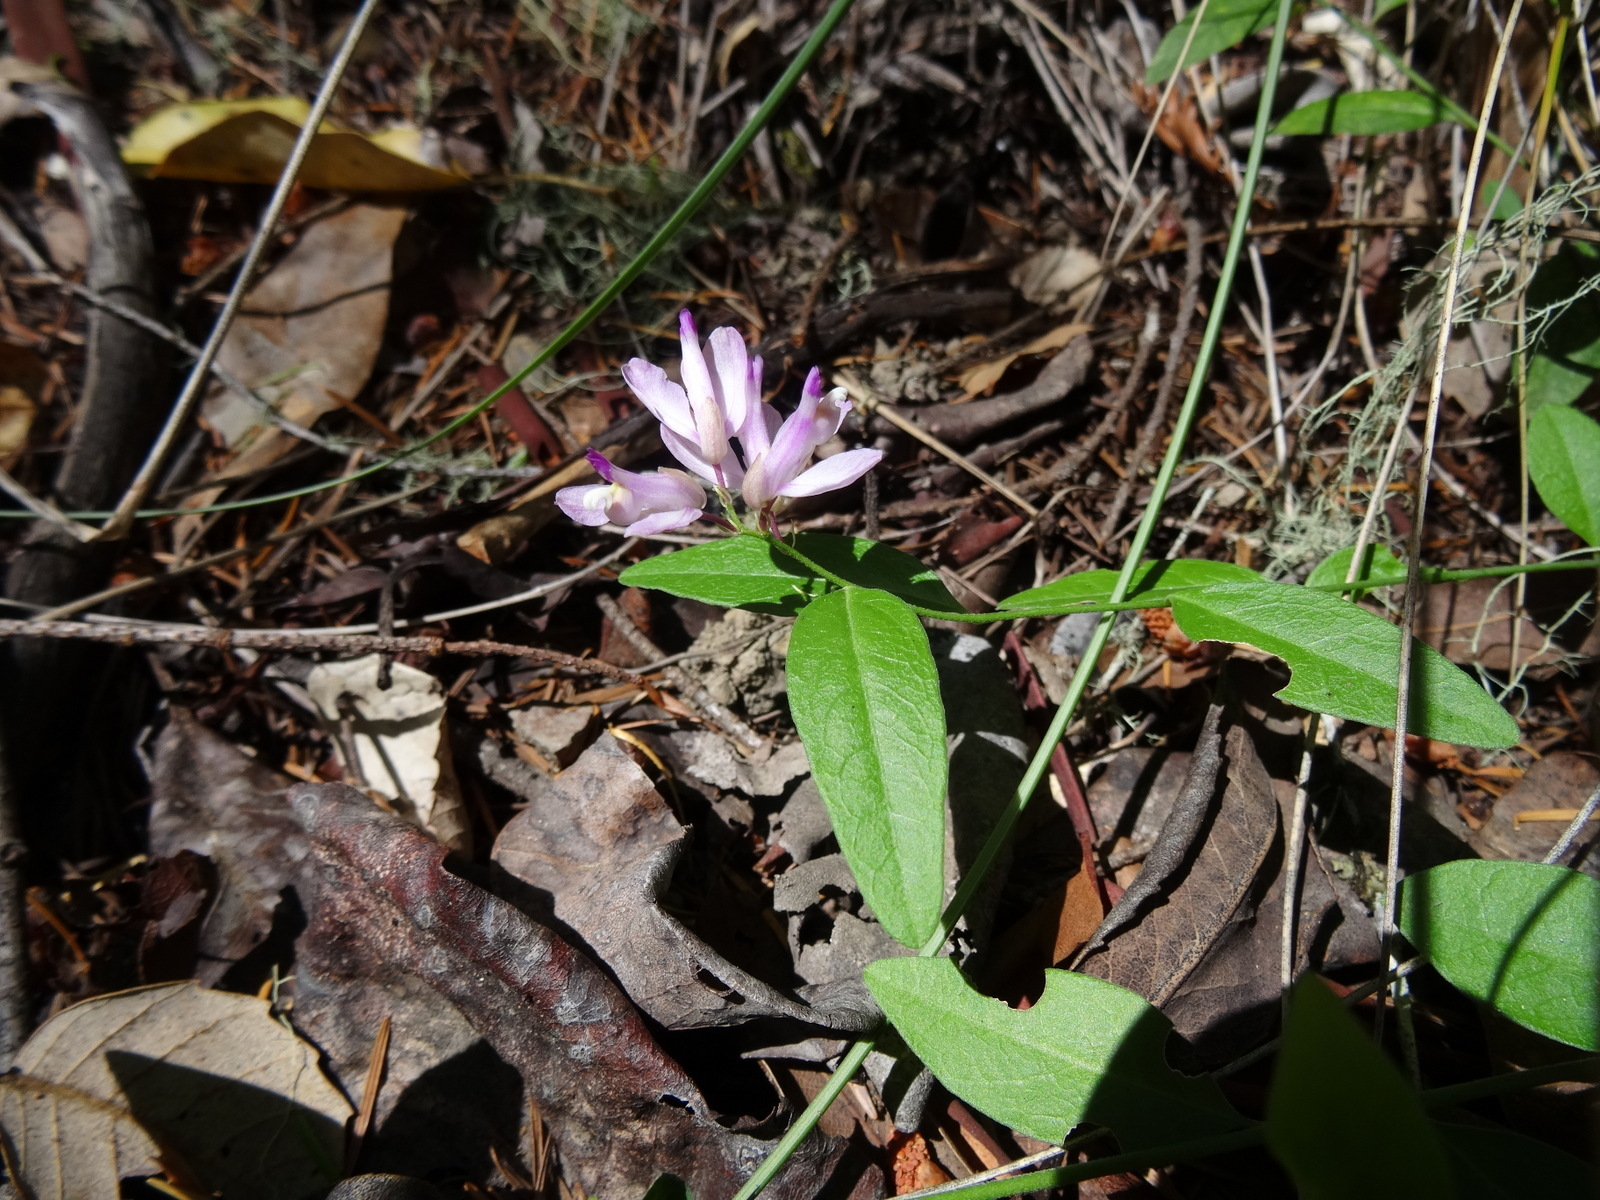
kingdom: Plantae
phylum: Tracheophyta
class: Magnoliopsida
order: Fabales
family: Polygalaceae
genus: Rhinotropis
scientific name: Rhinotropis californica
